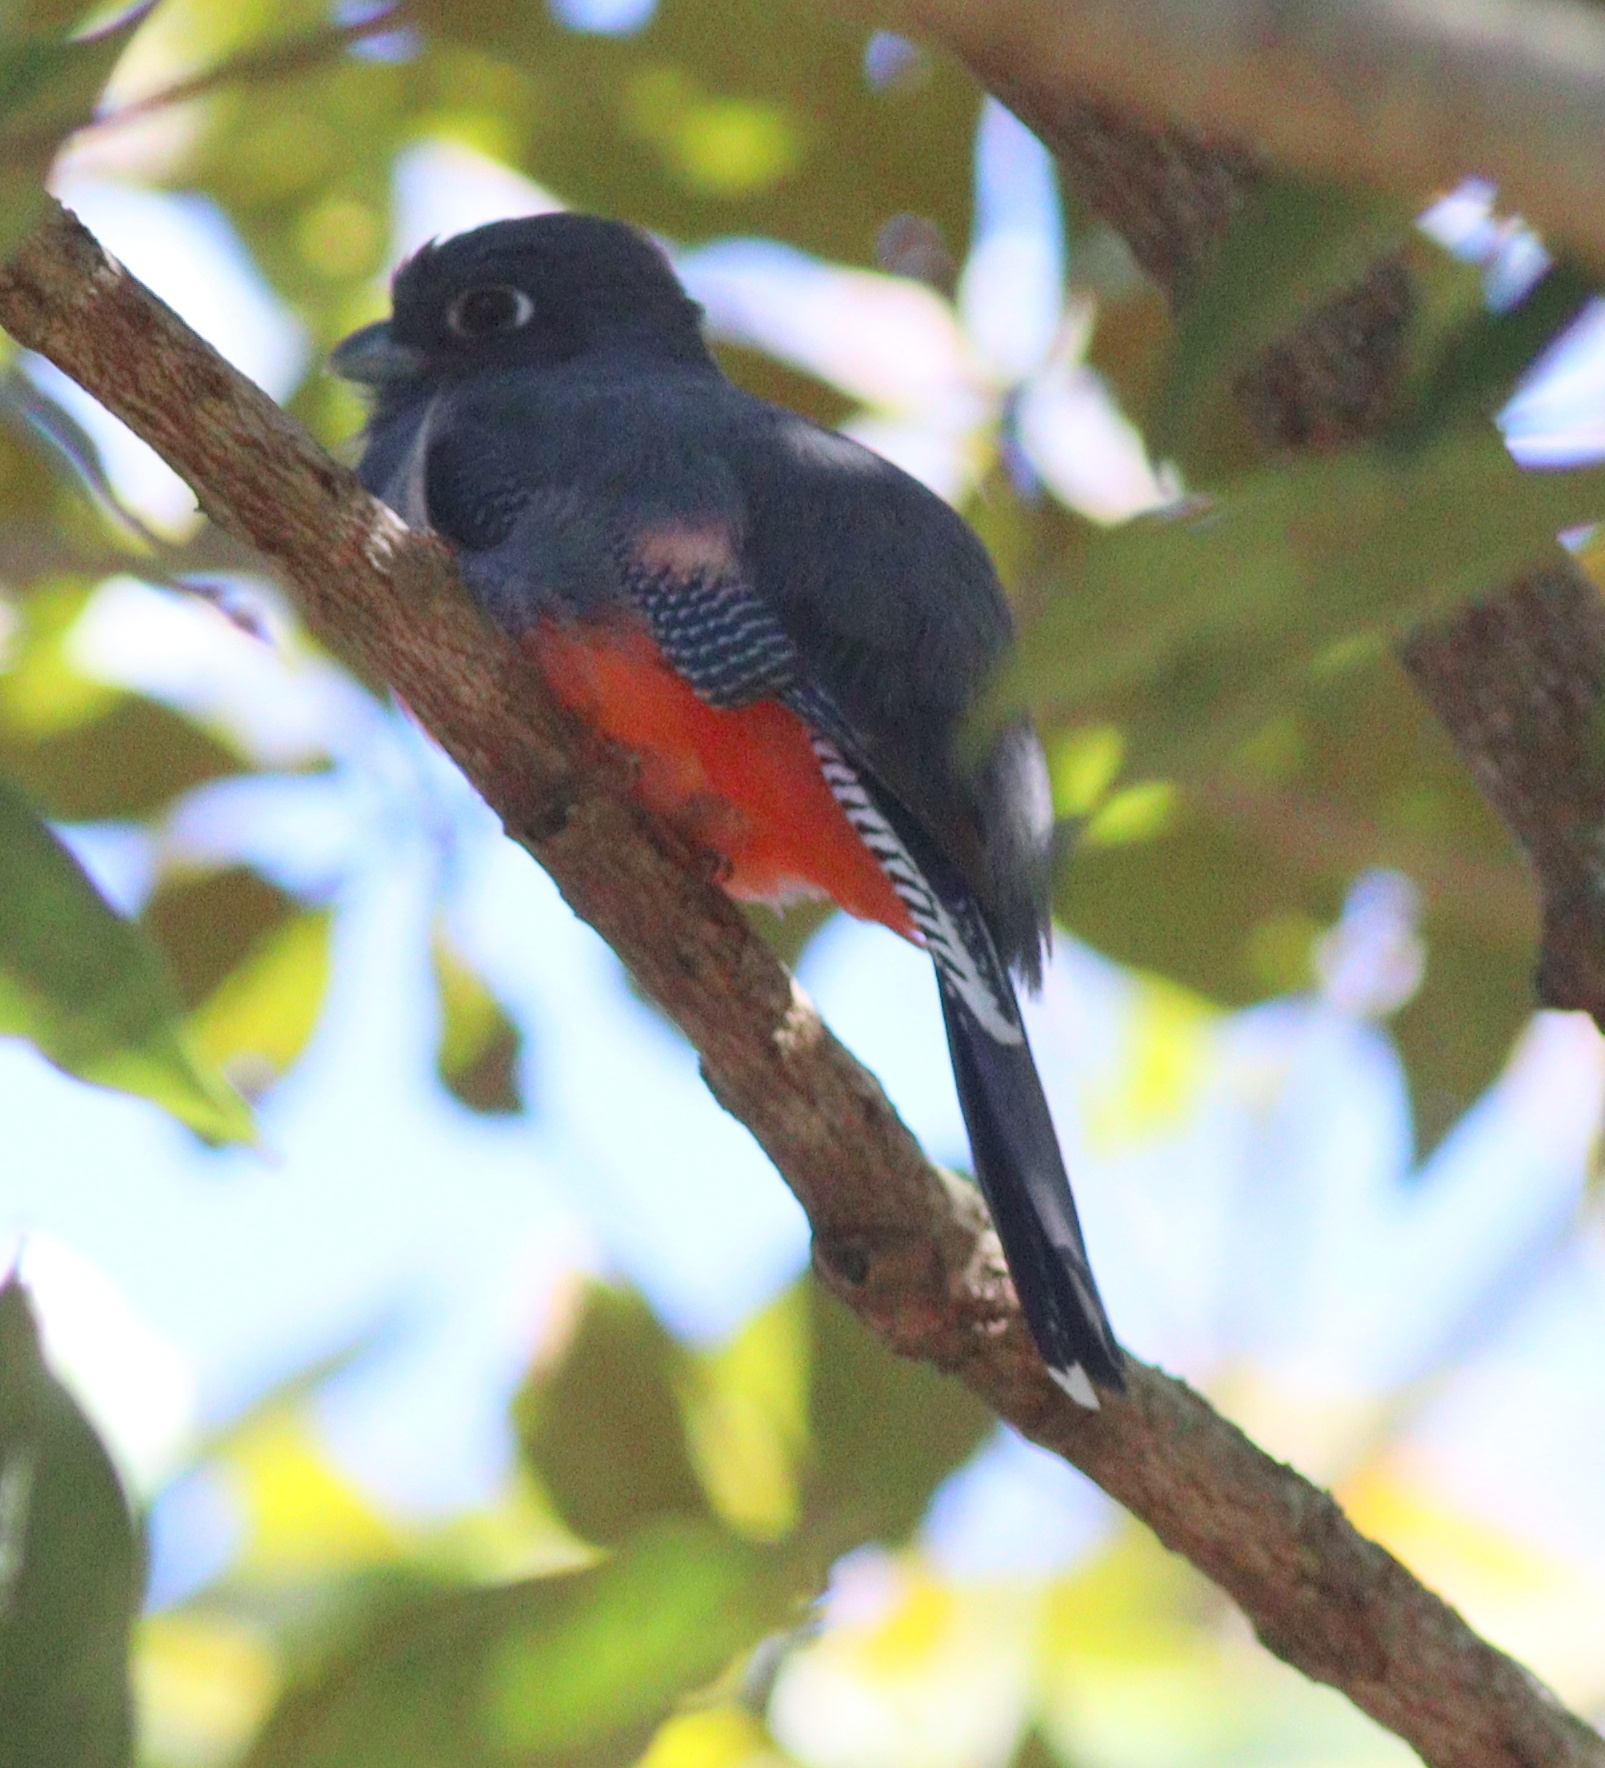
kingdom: Animalia
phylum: Chordata
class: Aves
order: Trogoniformes
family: Trogonidae
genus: Trogon
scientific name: Trogon curucui
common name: Blue-crowned trogon
